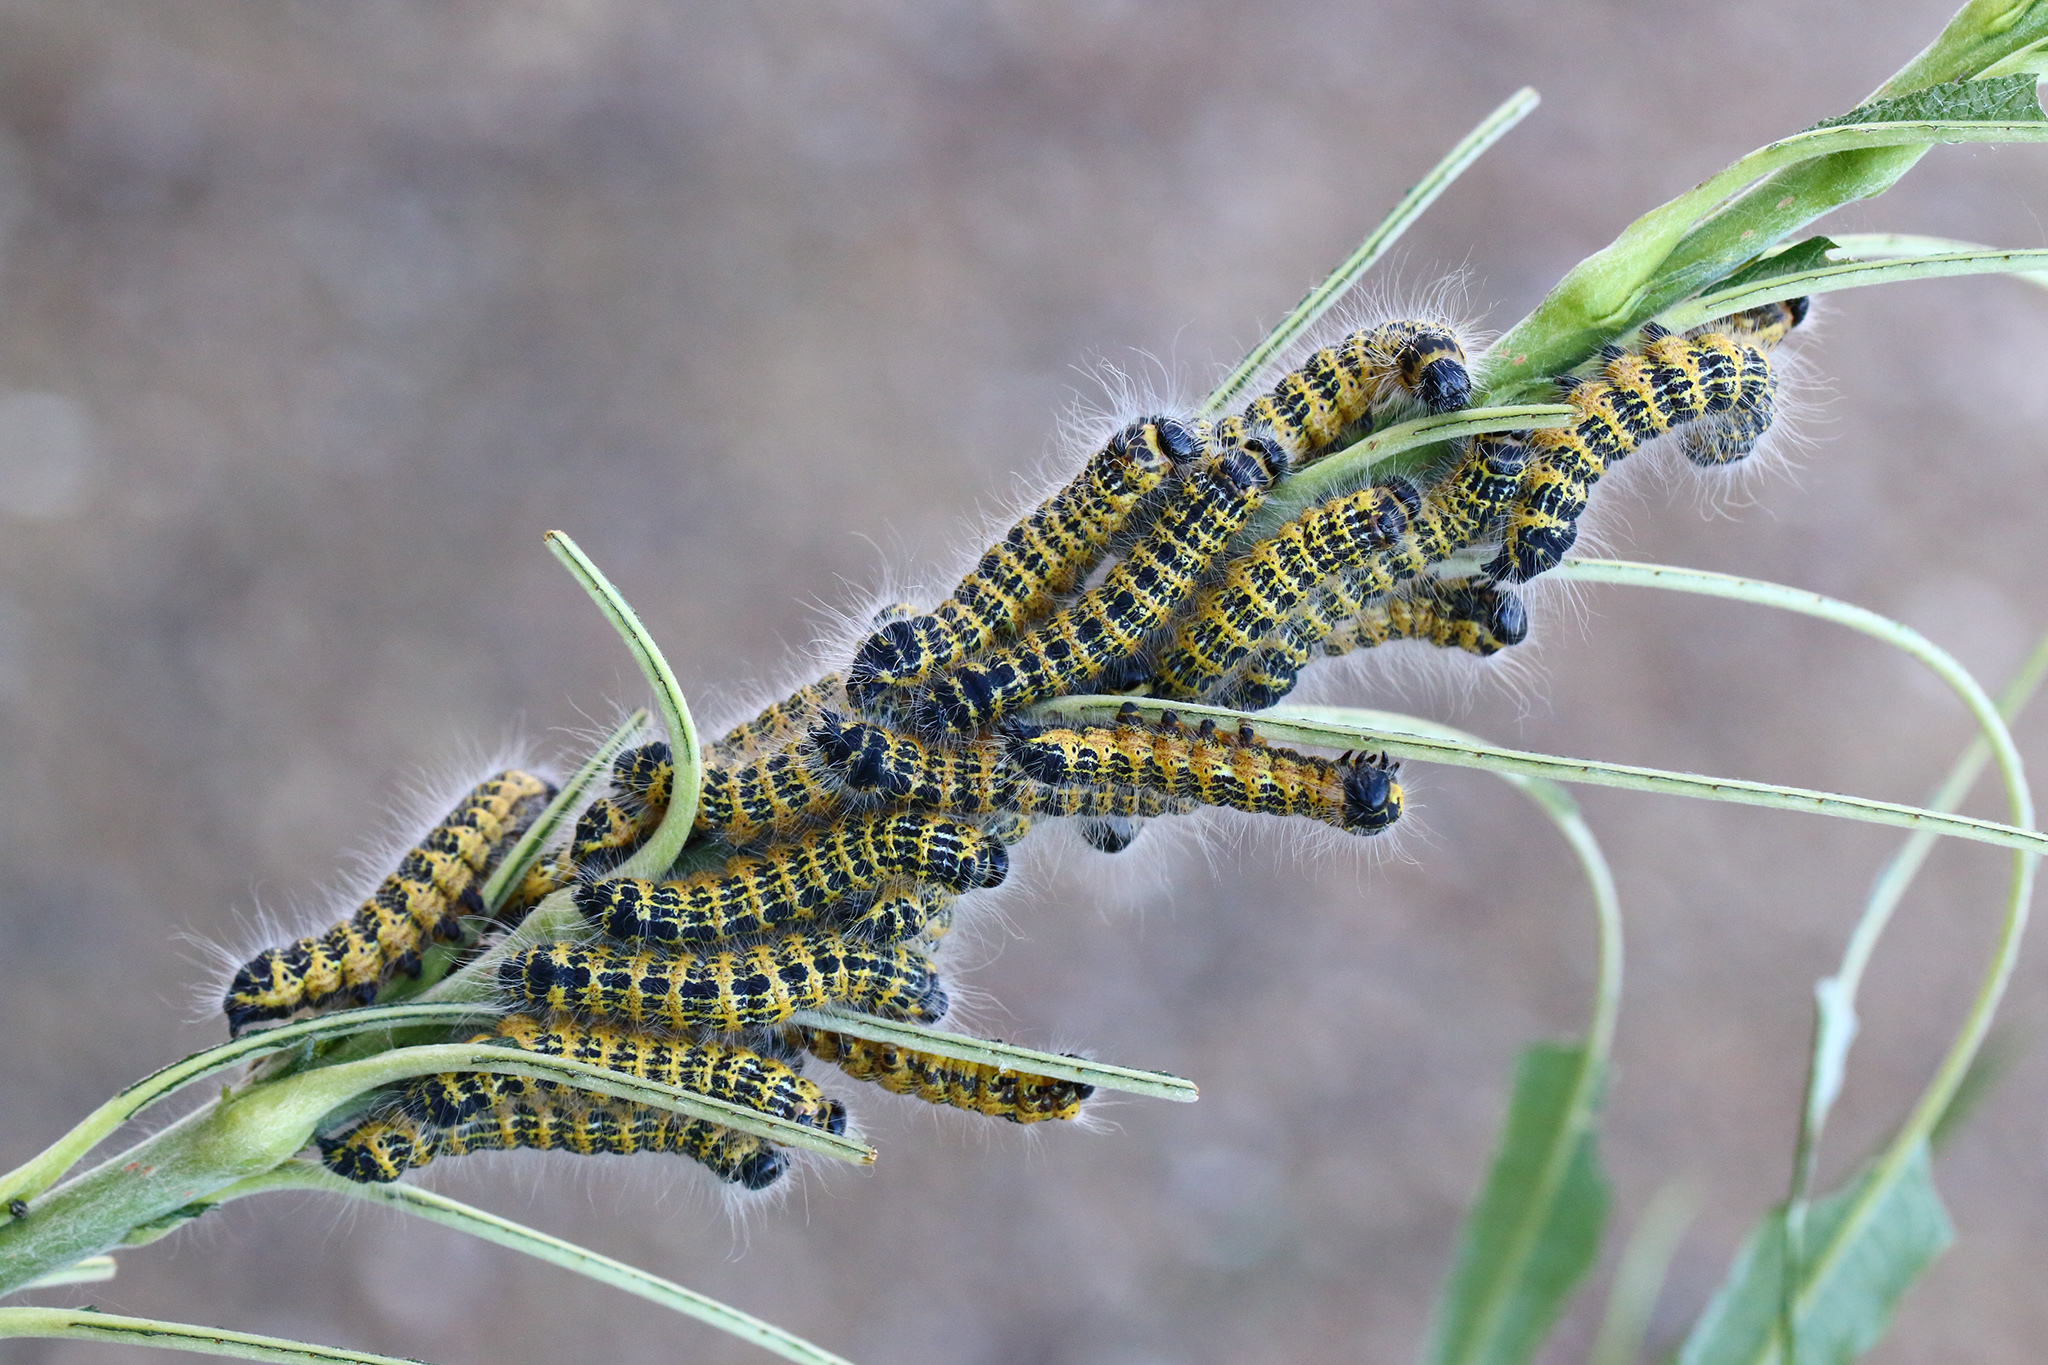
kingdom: Animalia
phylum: Arthropoda
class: Insecta
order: Lepidoptera
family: Notodontidae
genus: Phalera
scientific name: Phalera bucephala
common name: Buff-tip
